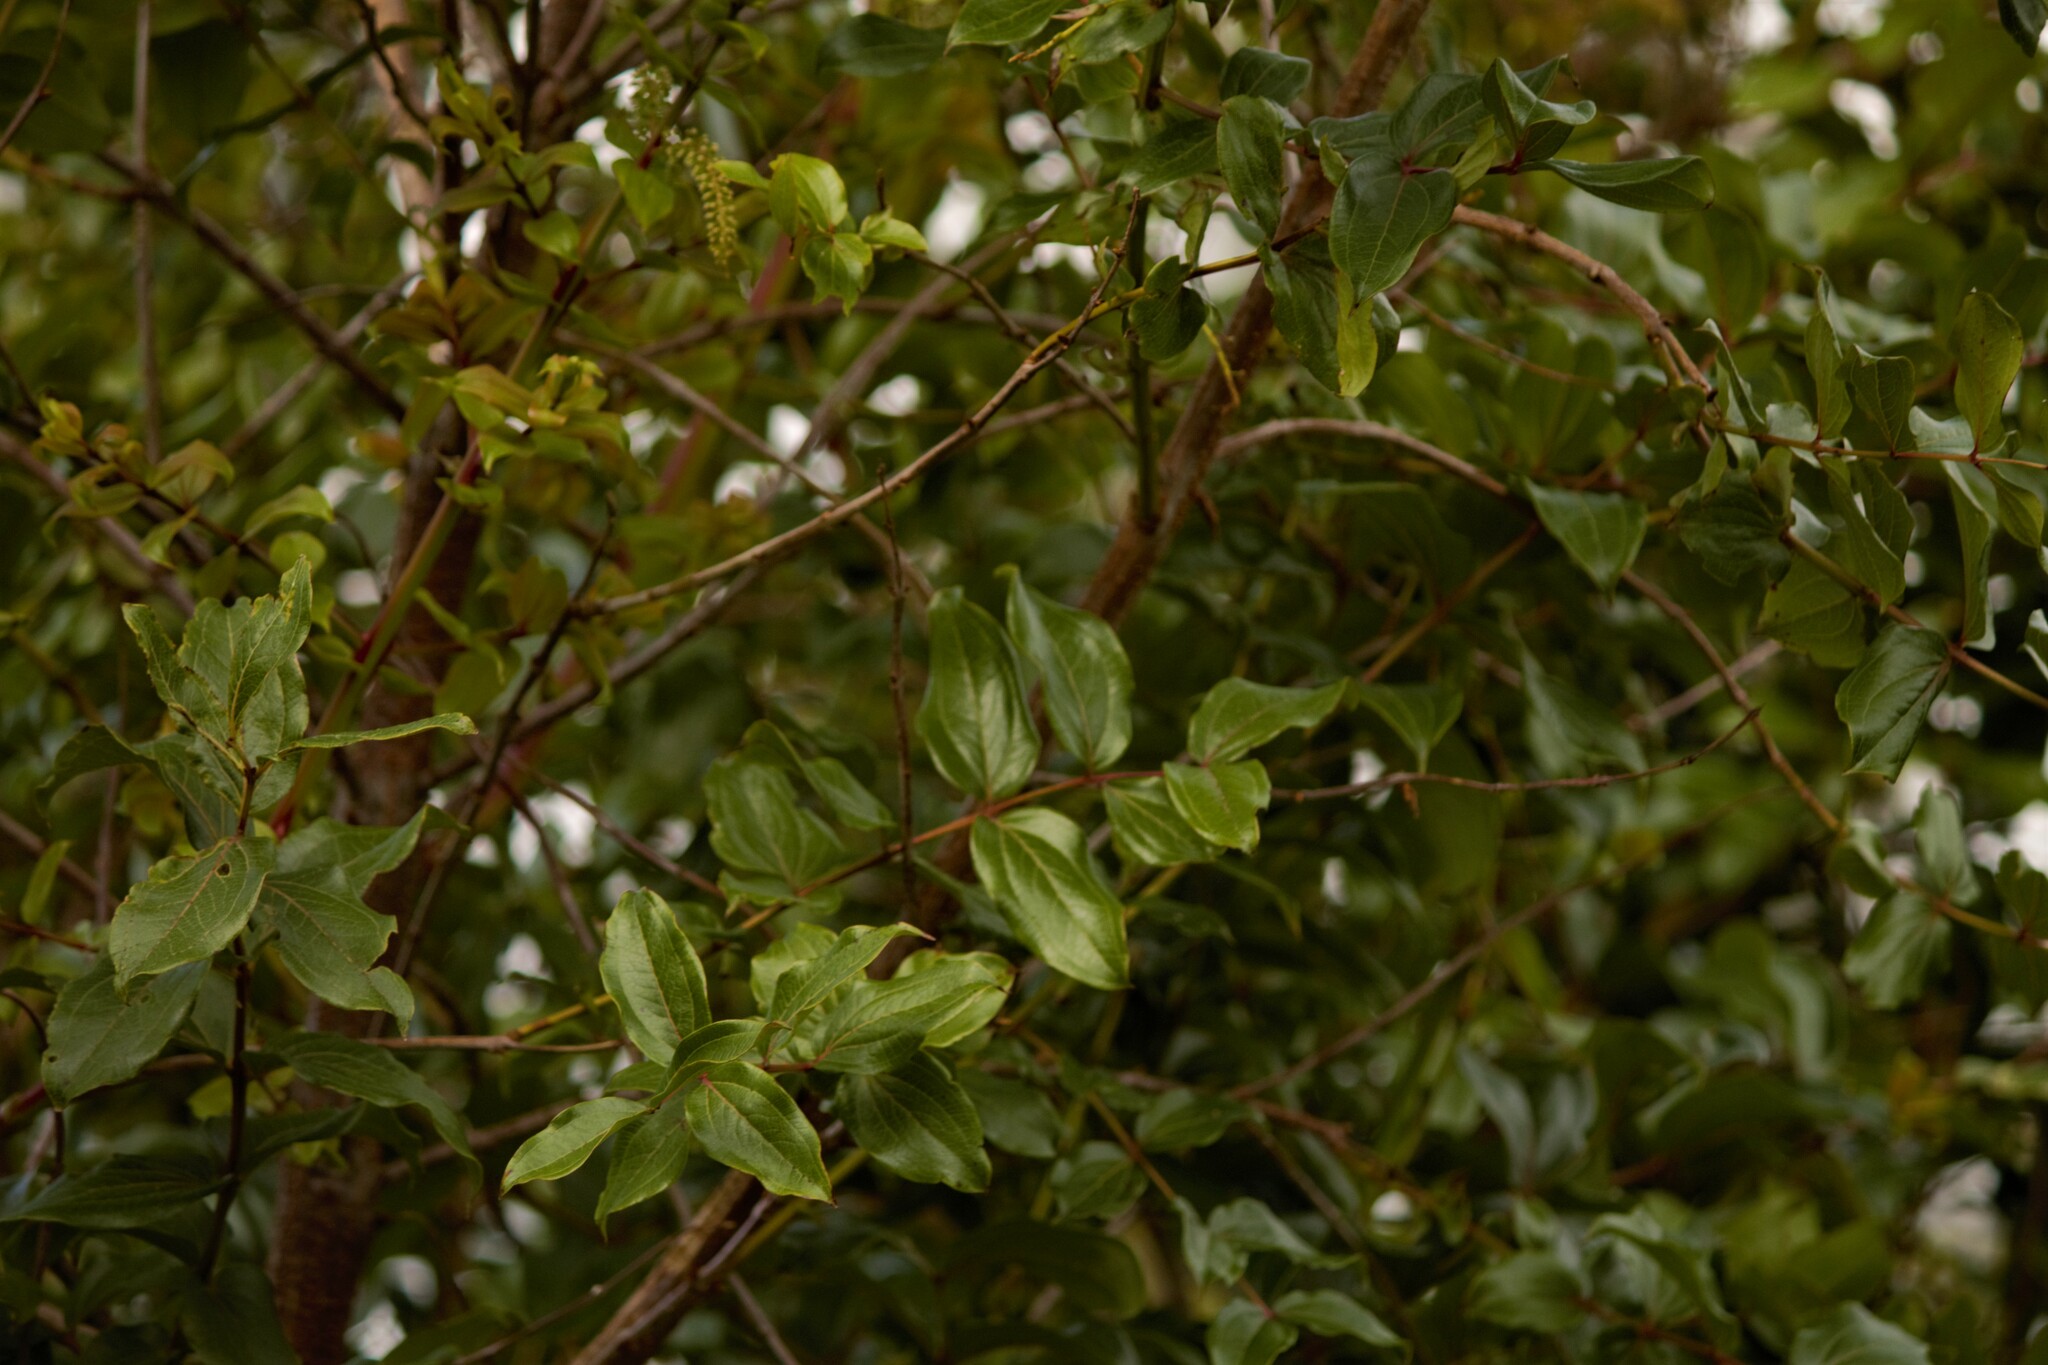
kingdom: Plantae
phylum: Tracheophyta
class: Magnoliopsida
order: Cucurbitales
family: Coriariaceae
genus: Coriaria
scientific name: Coriaria arborea
